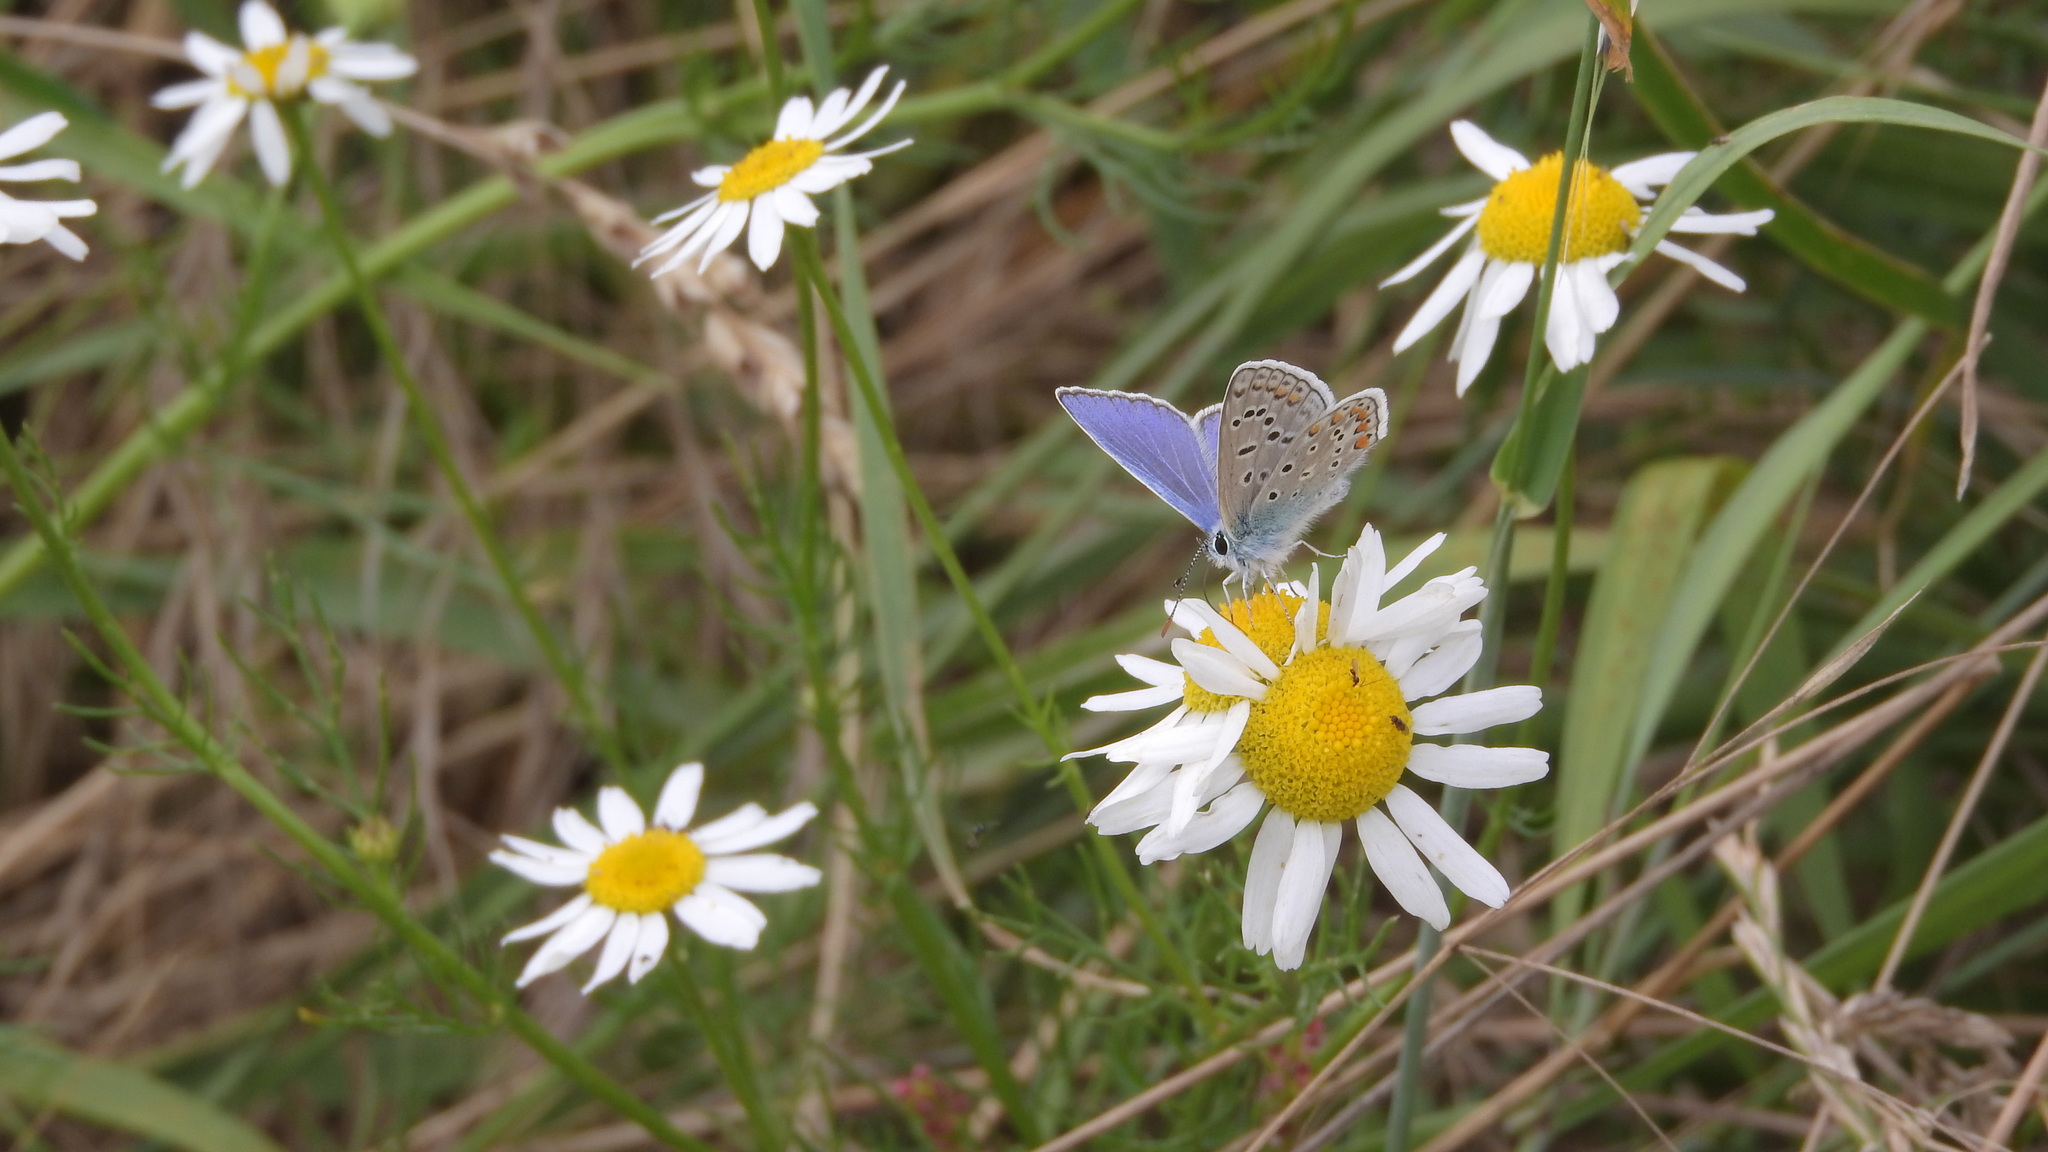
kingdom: Animalia
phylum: Arthropoda
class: Insecta
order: Lepidoptera
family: Lycaenidae
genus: Polyommatus
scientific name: Polyommatus icarus
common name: Common blue
